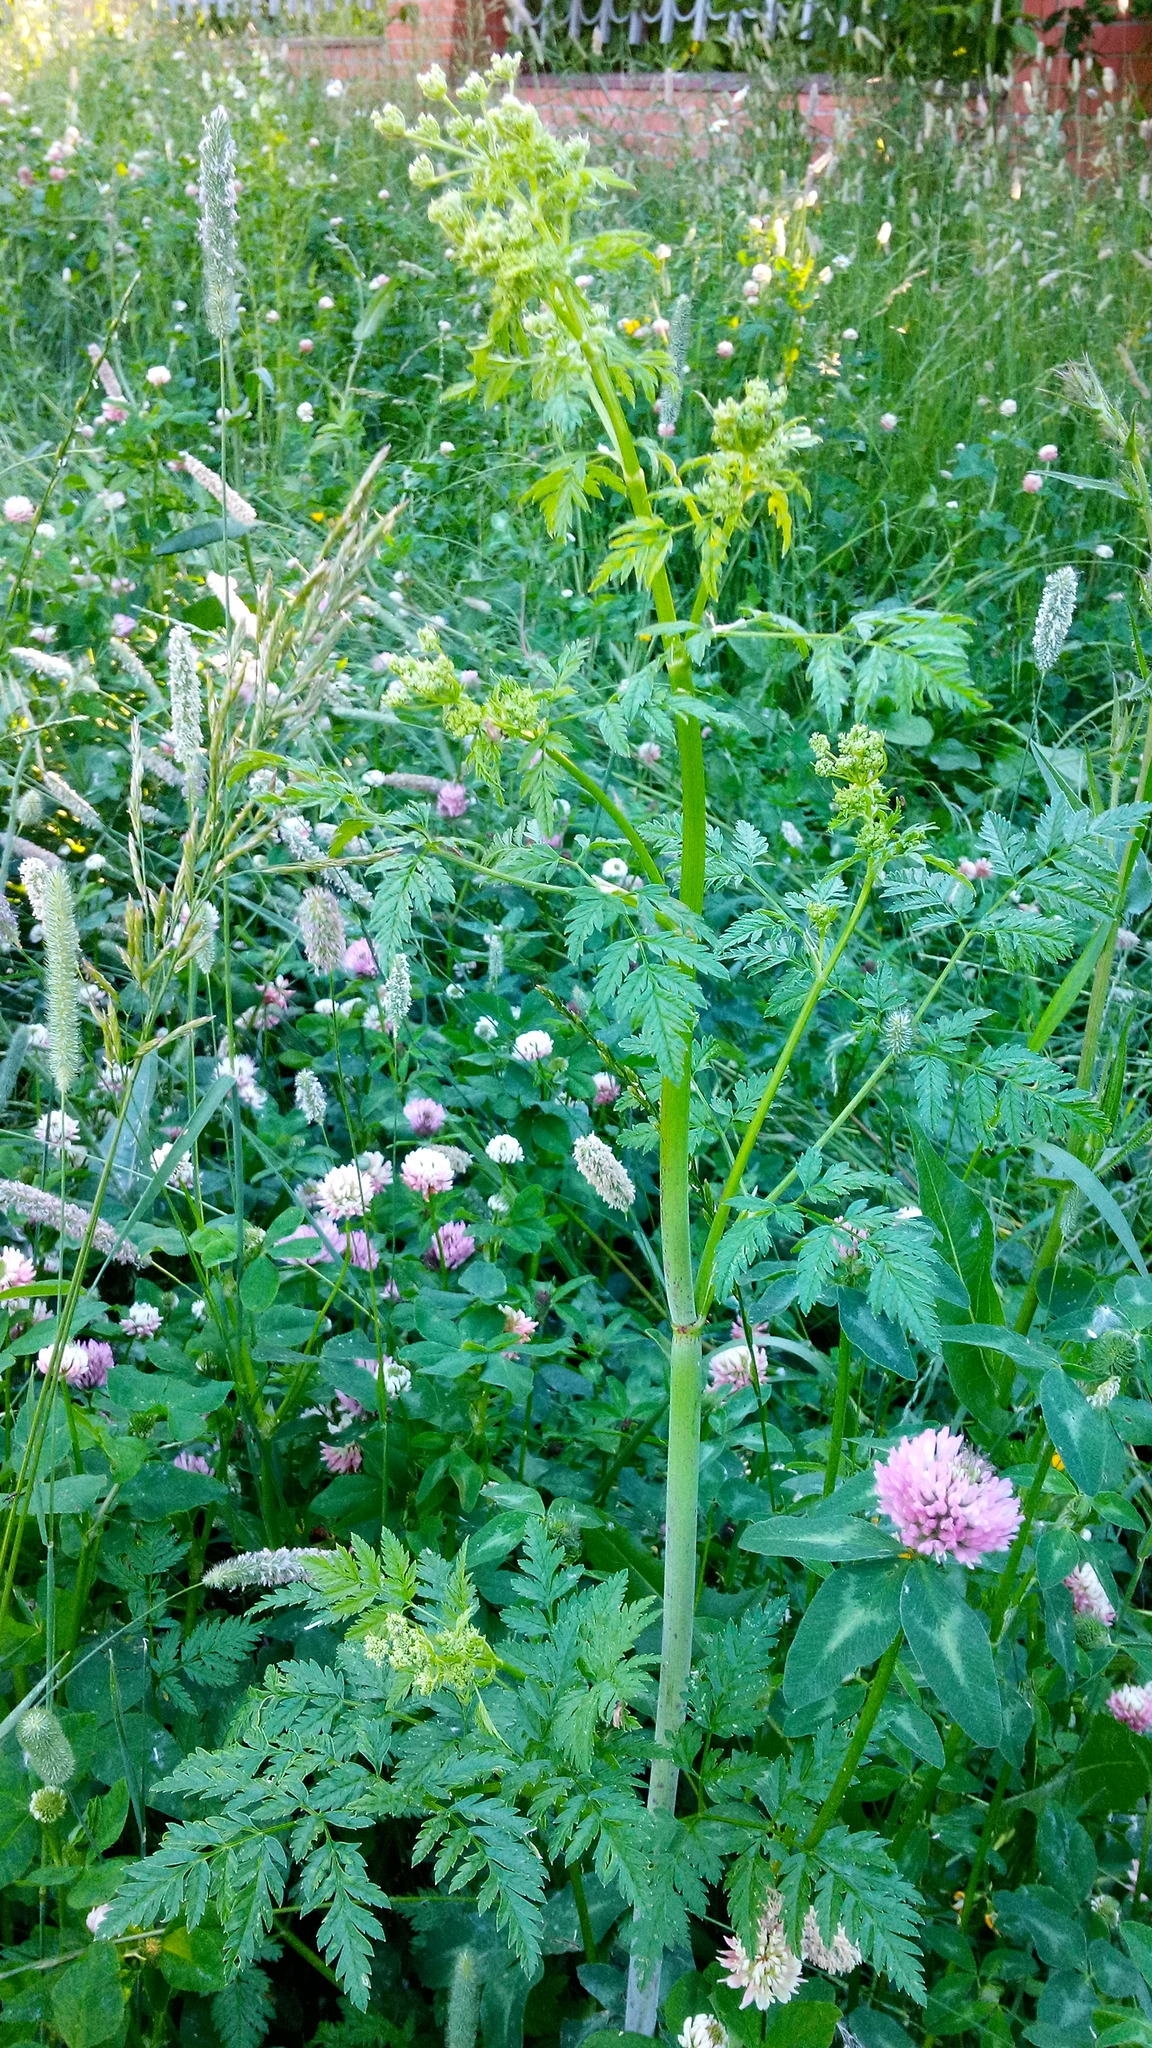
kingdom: Plantae
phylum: Tracheophyta
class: Magnoliopsida
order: Apiales
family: Apiaceae
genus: Conium
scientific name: Conium maculatum
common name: Hemlock
